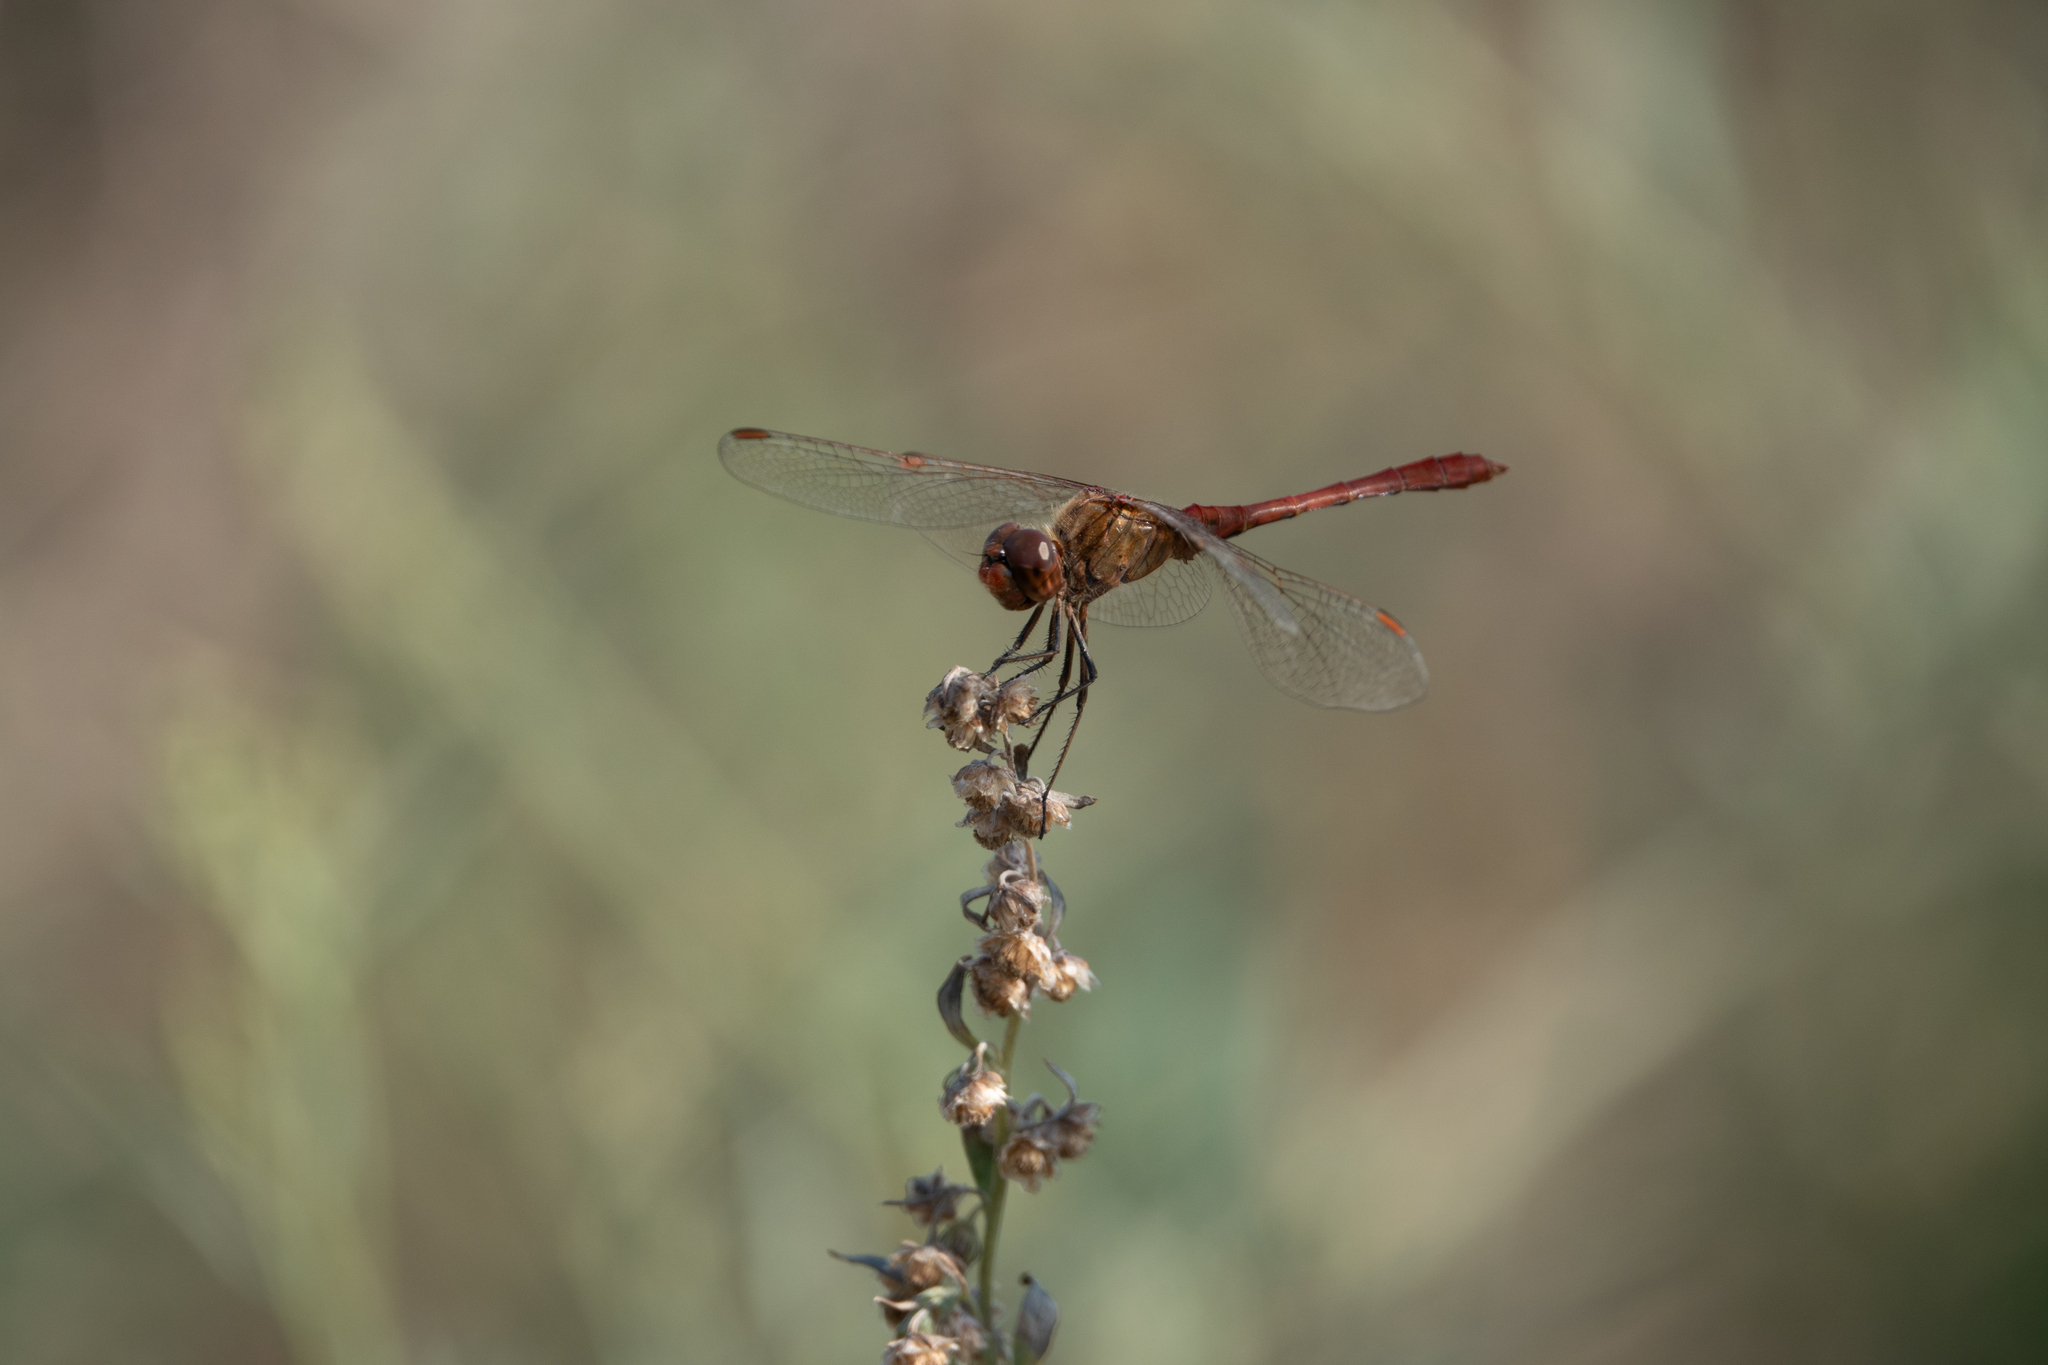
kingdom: Animalia
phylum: Arthropoda
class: Insecta
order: Odonata
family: Libellulidae
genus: Sympetrum
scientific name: Sympetrum meridionale
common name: Southern darter
